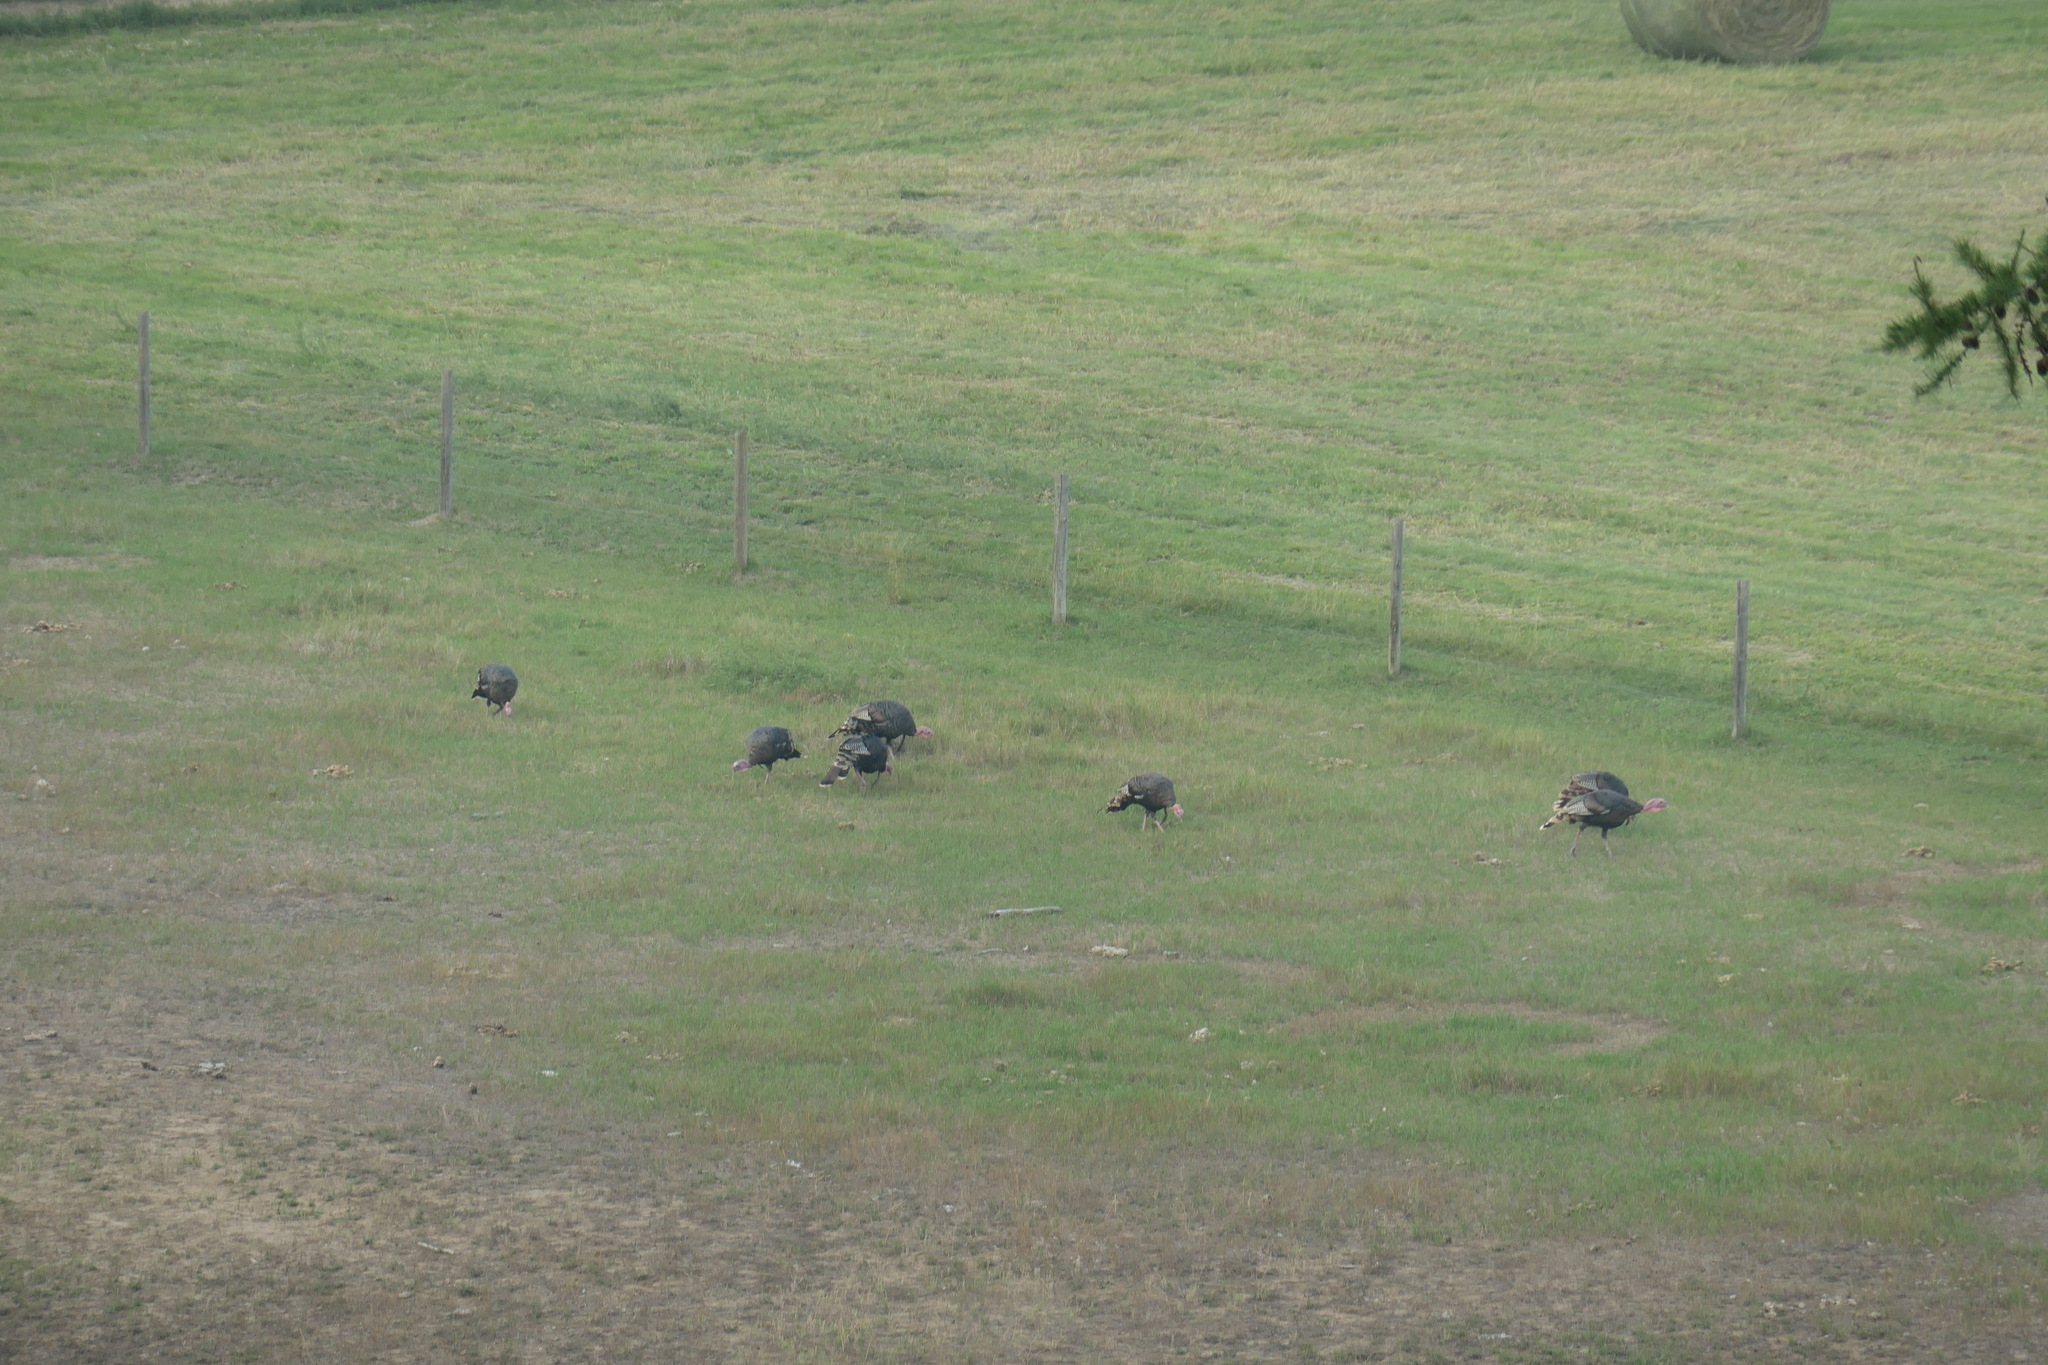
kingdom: Animalia
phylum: Chordata
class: Aves
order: Galliformes
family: Phasianidae
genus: Meleagris
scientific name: Meleagris gallopavo
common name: Wild turkey
